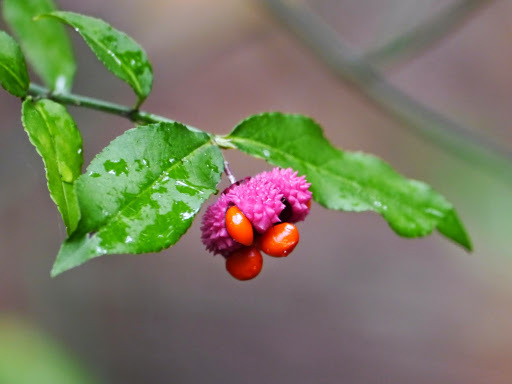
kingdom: Plantae
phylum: Tracheophyta
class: Magnoliopsida
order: Celastrales
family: Celastraceae
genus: Euonymus
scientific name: Euonymus americanus
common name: Bursting-heart
